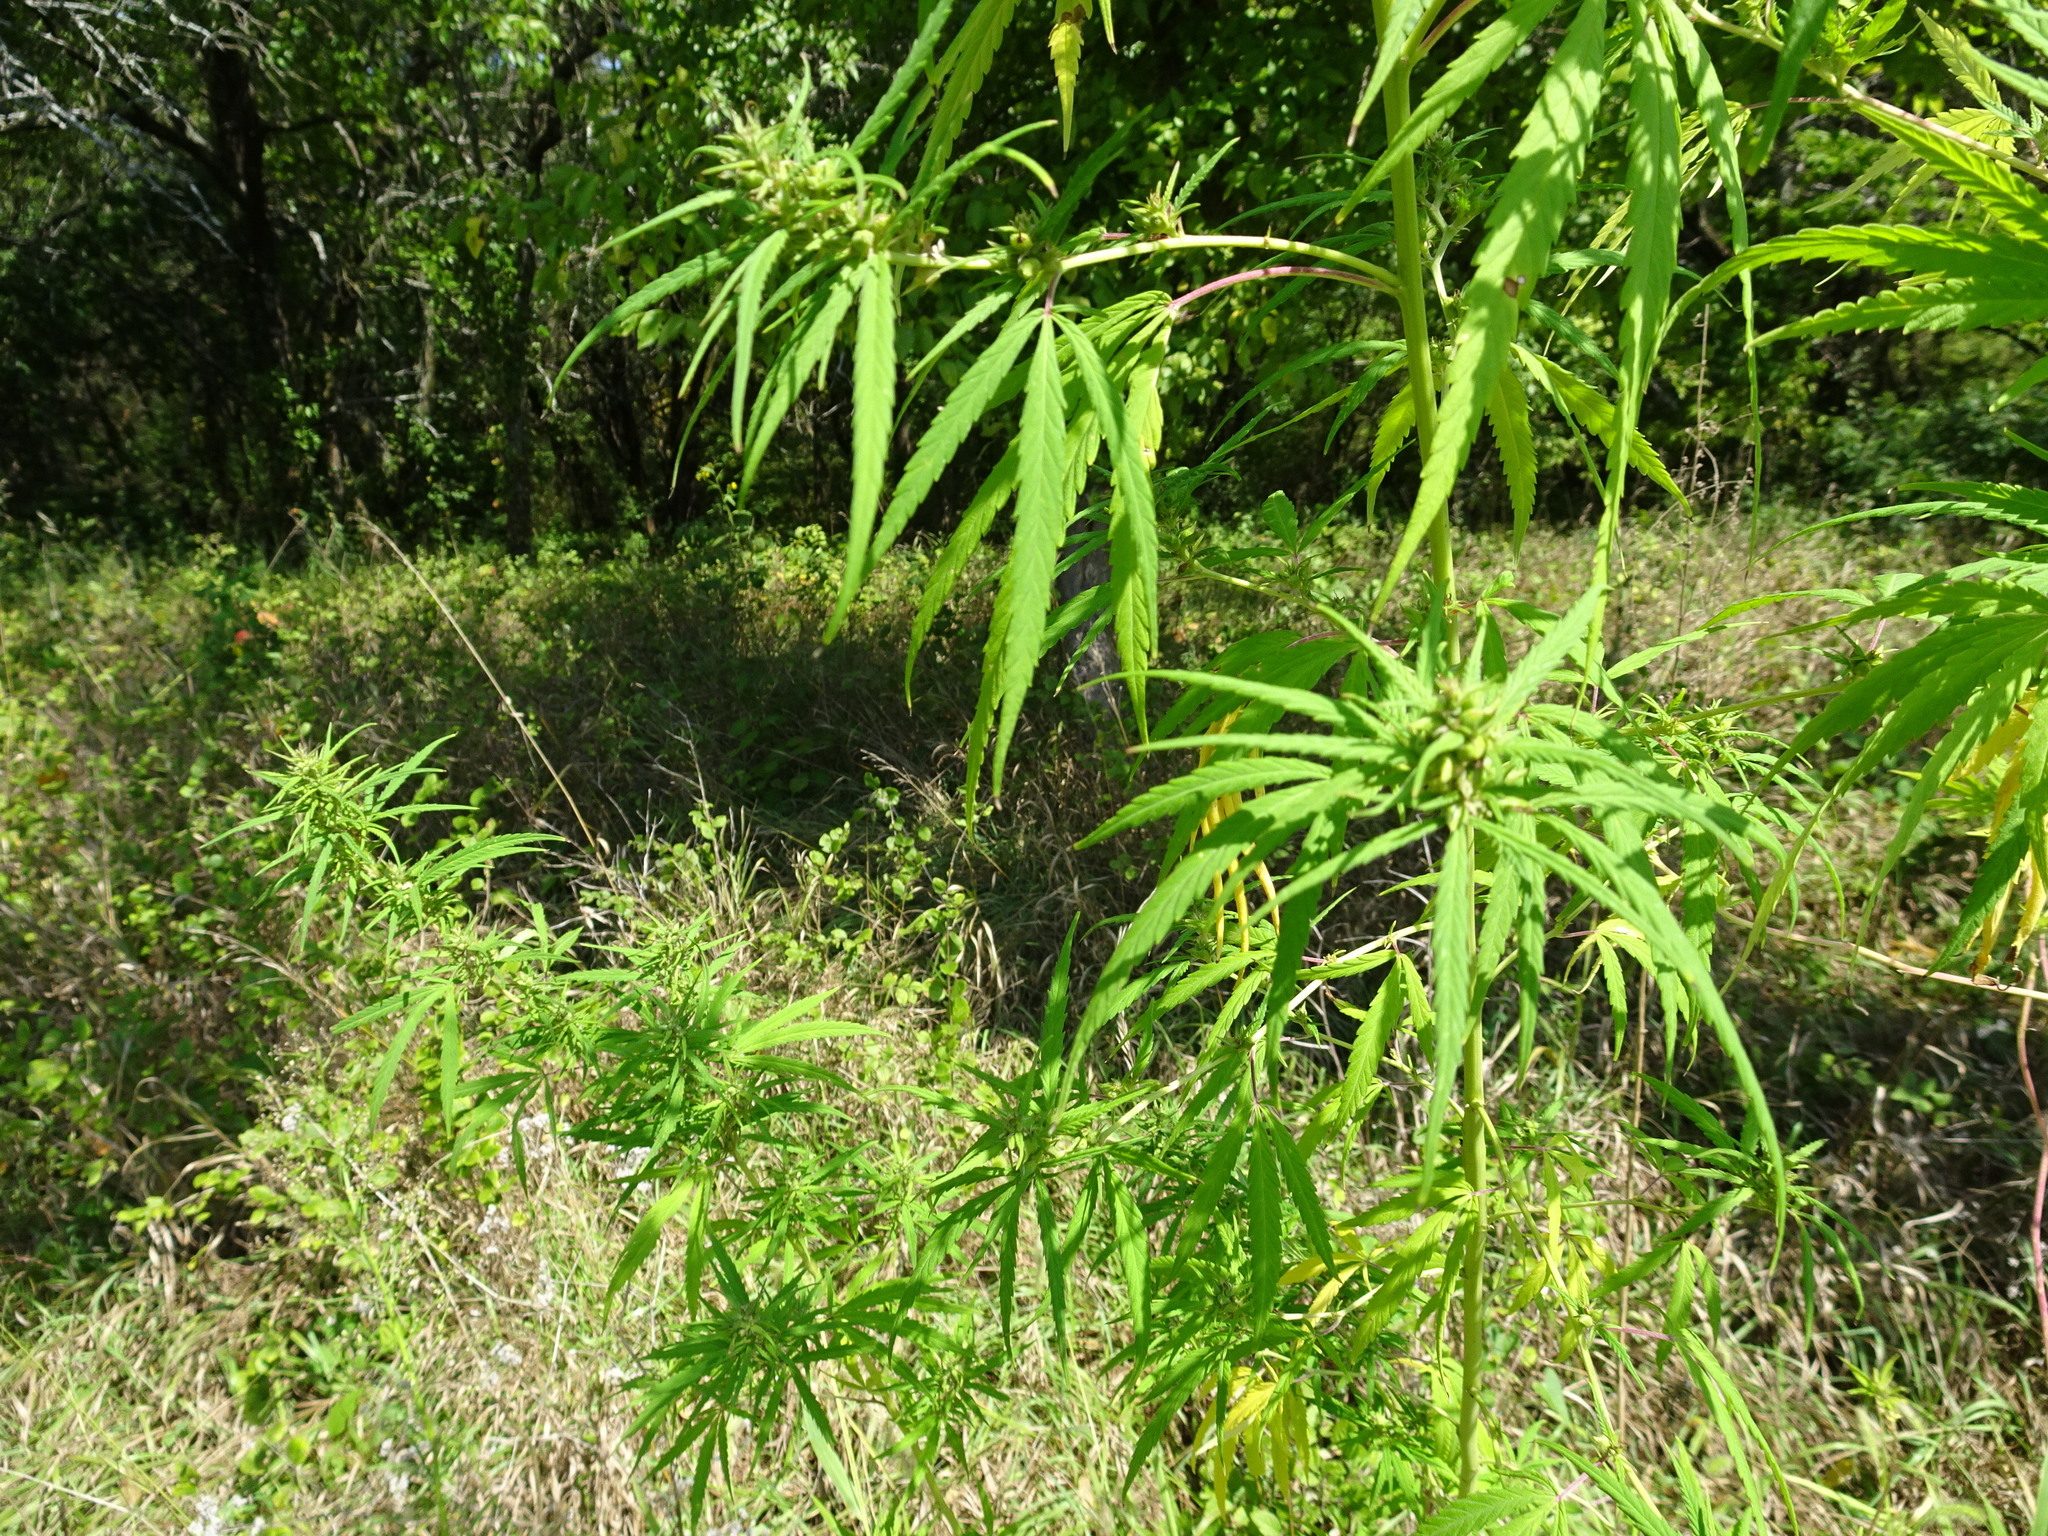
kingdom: Plantae
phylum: Tracheophyta
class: Magnoliopsida
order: Rosales
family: Cannabaceae
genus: Cannabis
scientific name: Cannabis sativa
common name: Hemp
